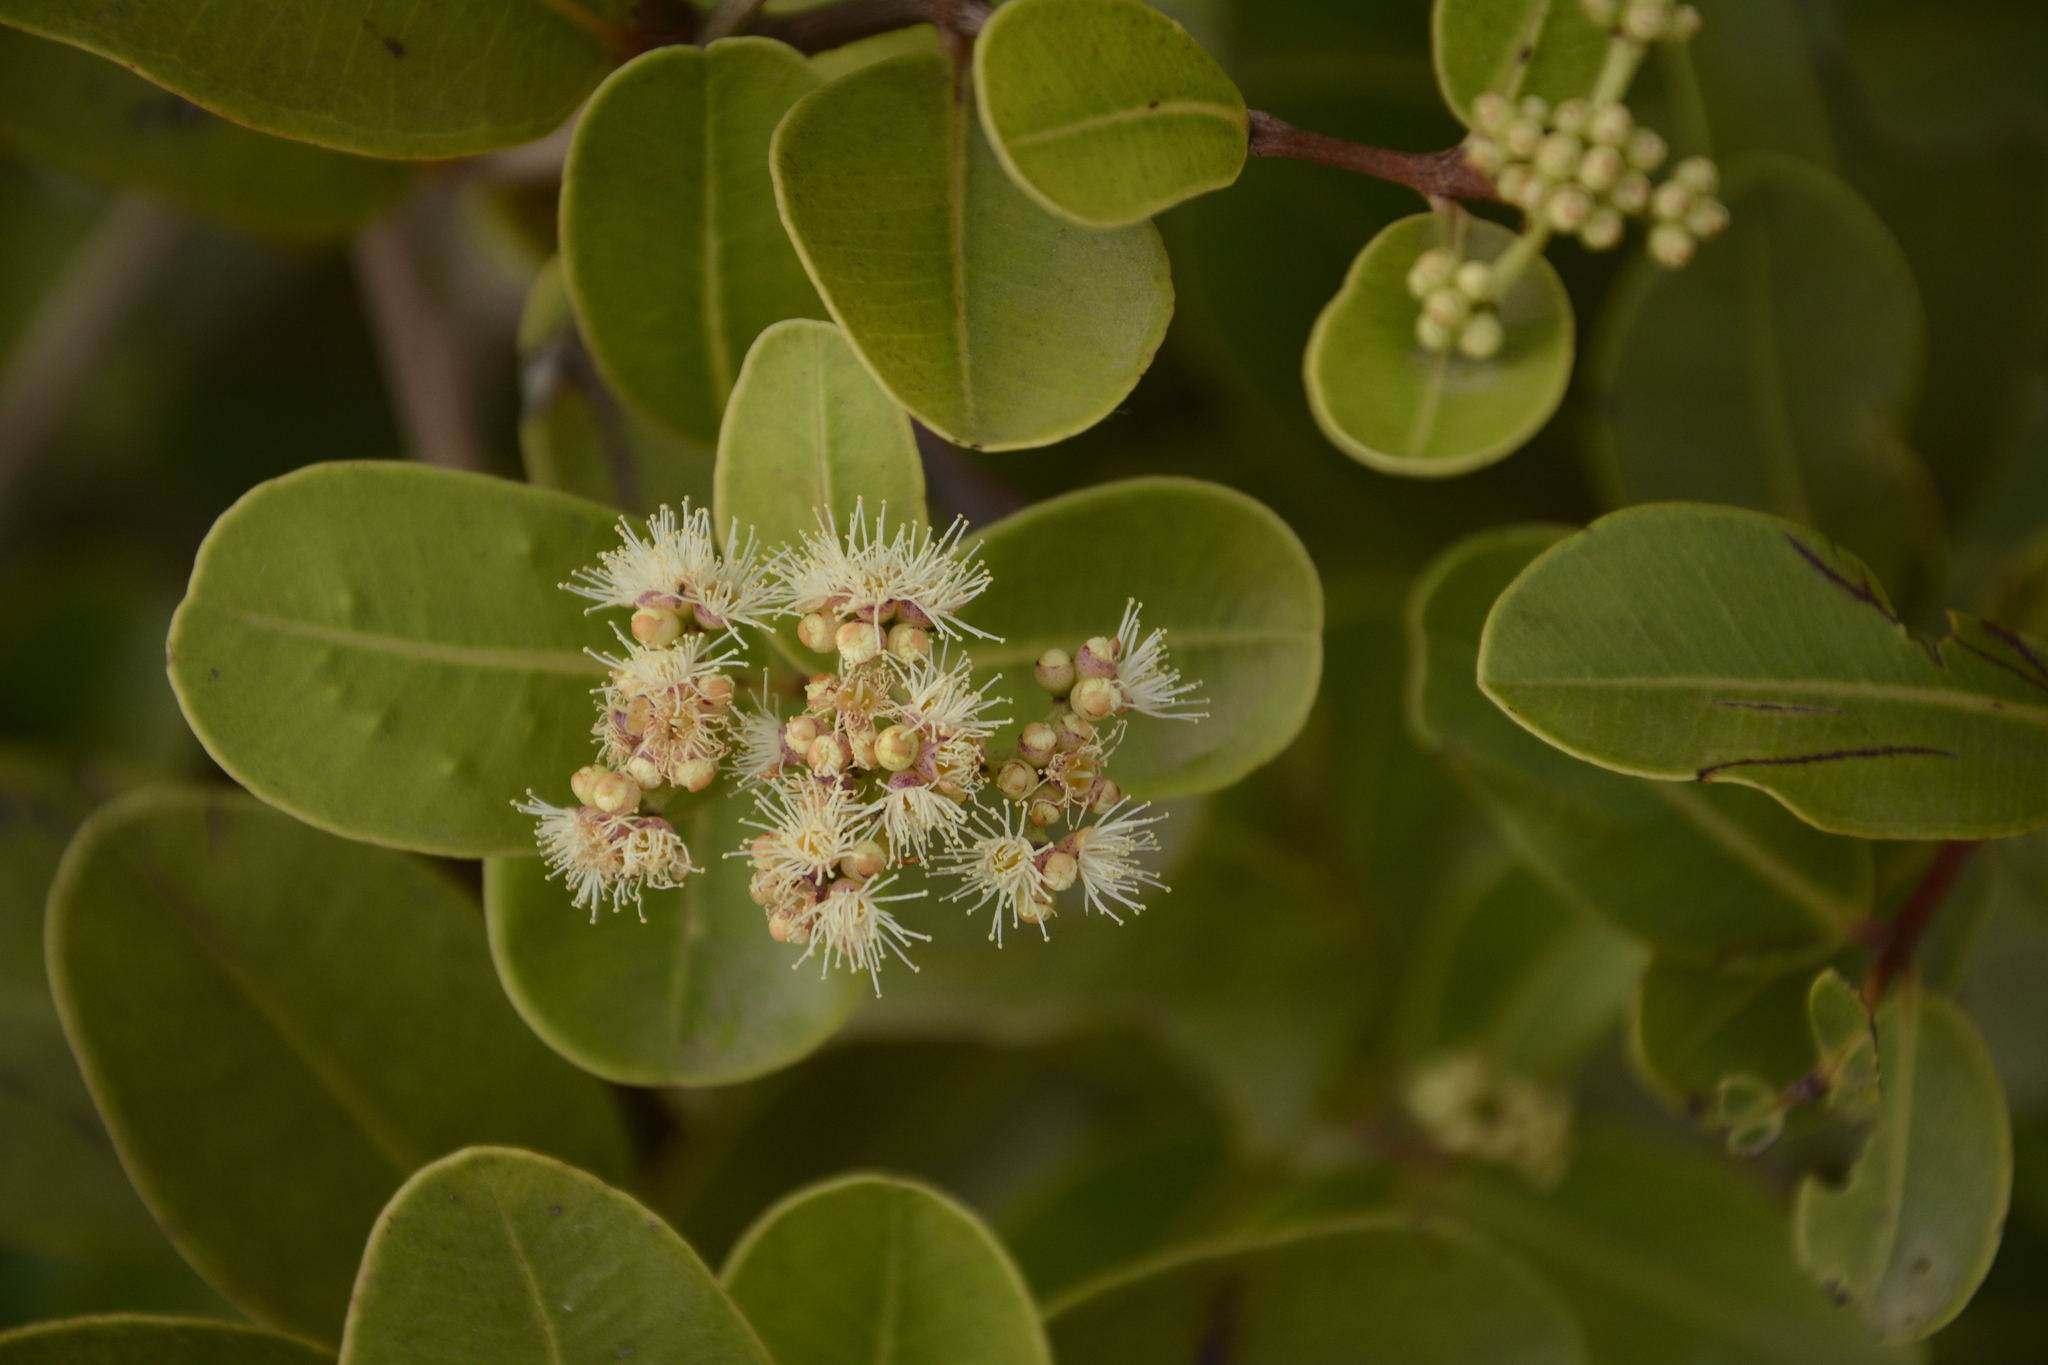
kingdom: Plantae
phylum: Tracheophyta
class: Magnoliopsida
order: Myrtales
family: Myrtaceae
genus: Syzygium
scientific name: Syzygium caryophyllatum
